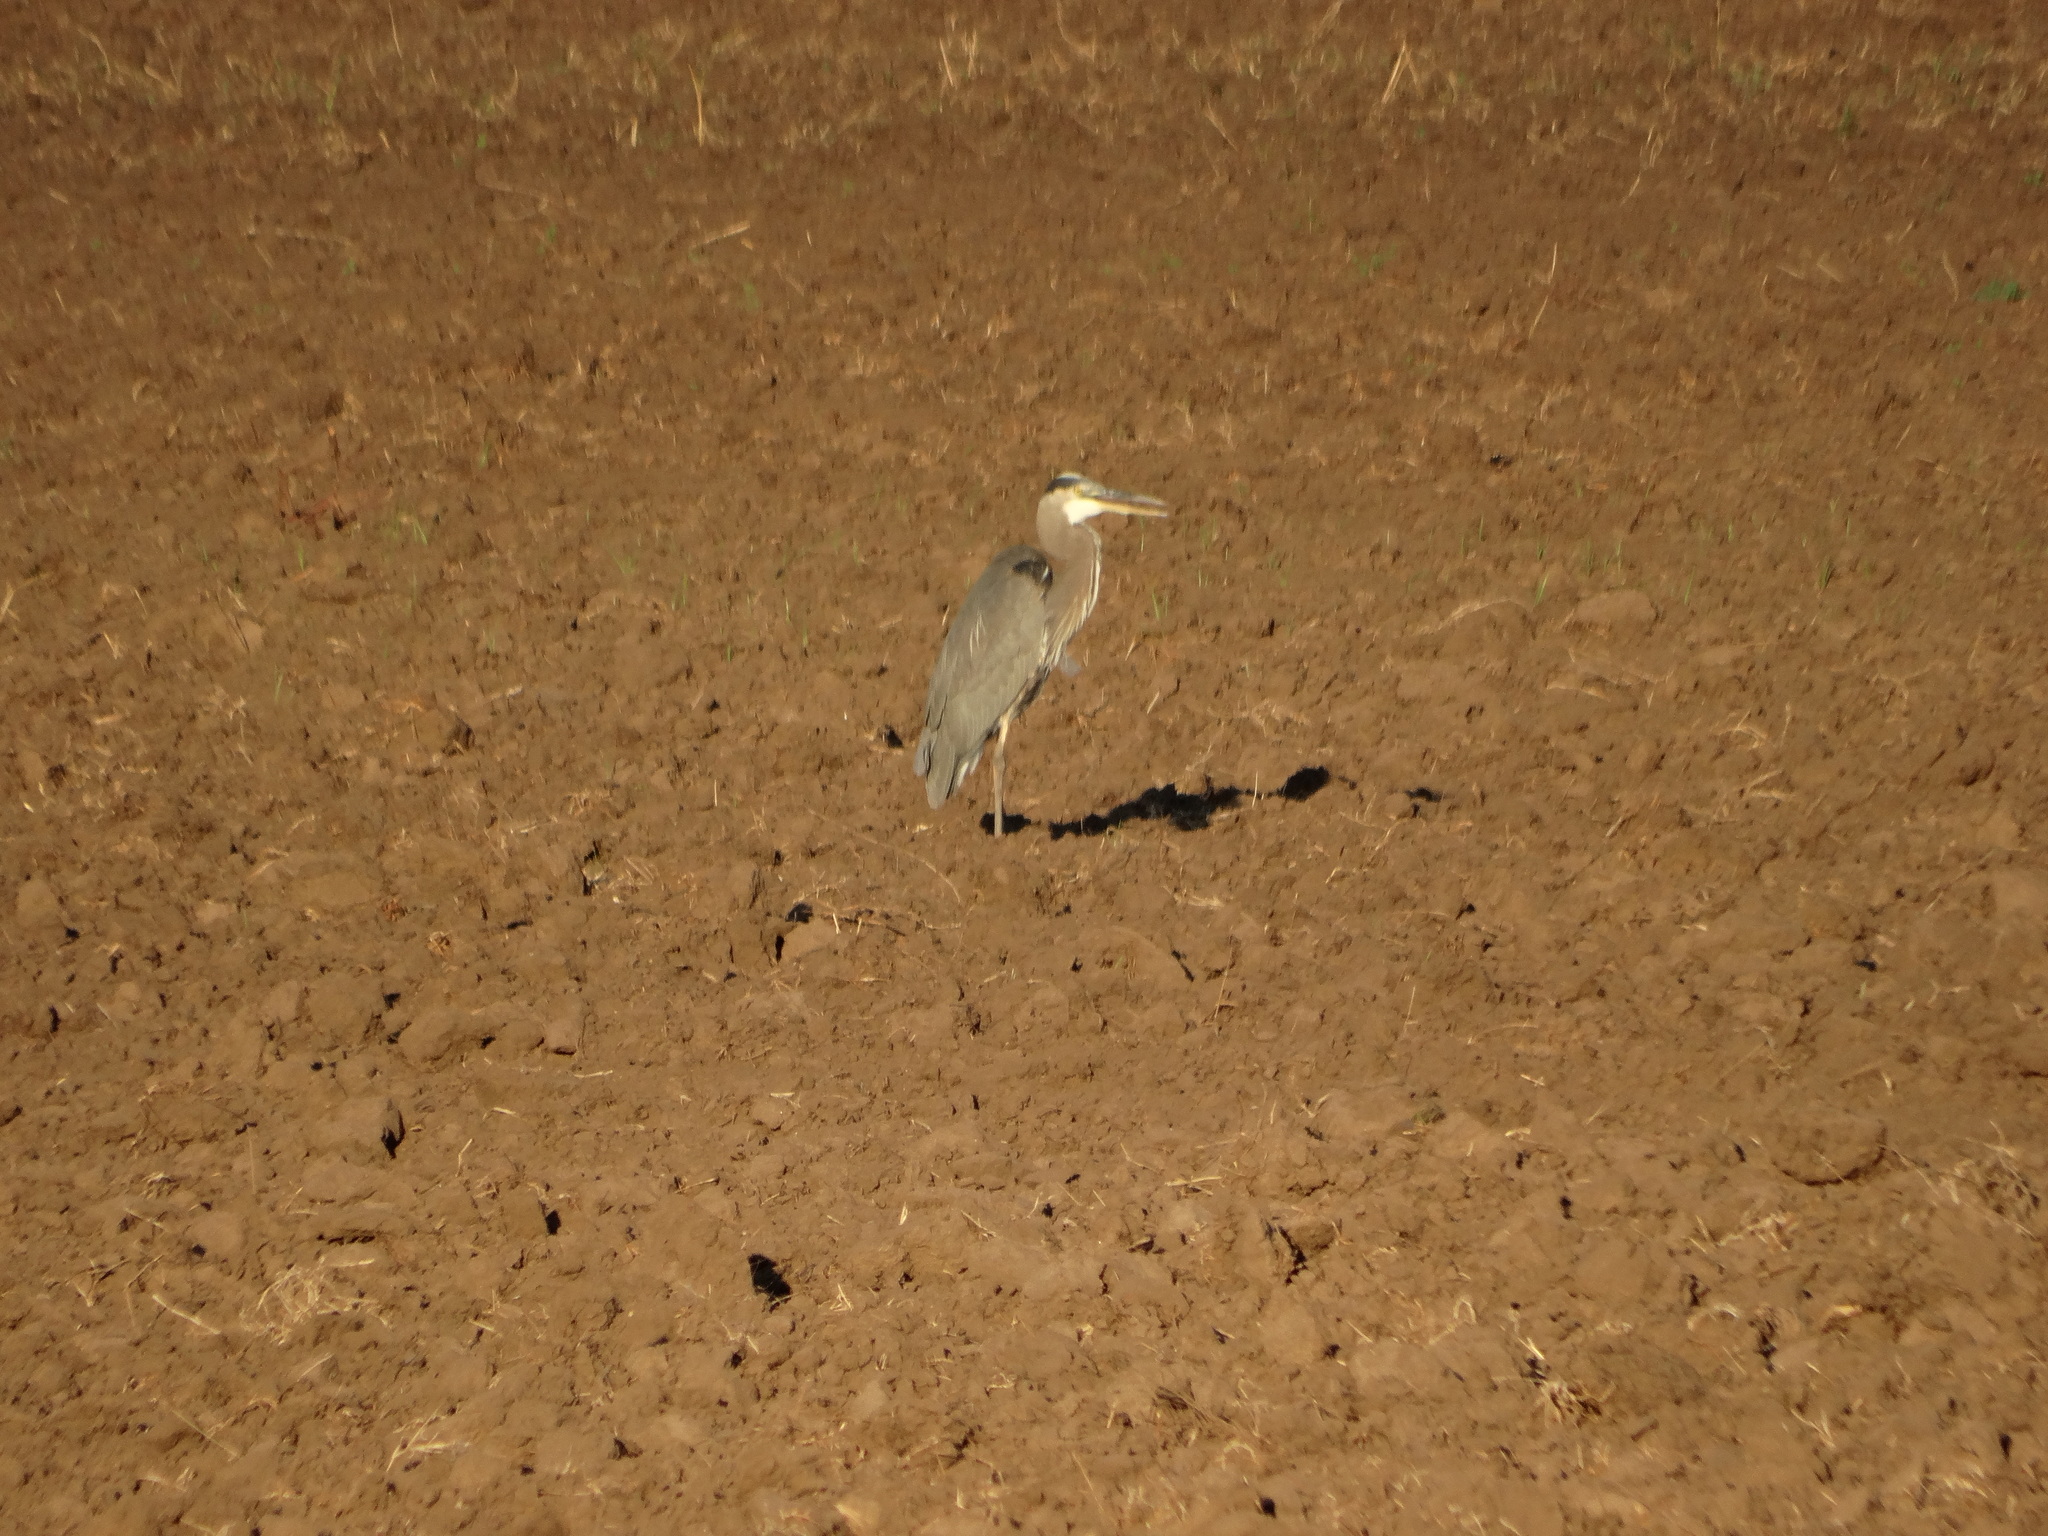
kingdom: Animalia
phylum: Chordata
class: Aves
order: Pelecaniformes
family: Ardeidae
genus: Ardea
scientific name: Ardea herodias
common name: Great blue heron
